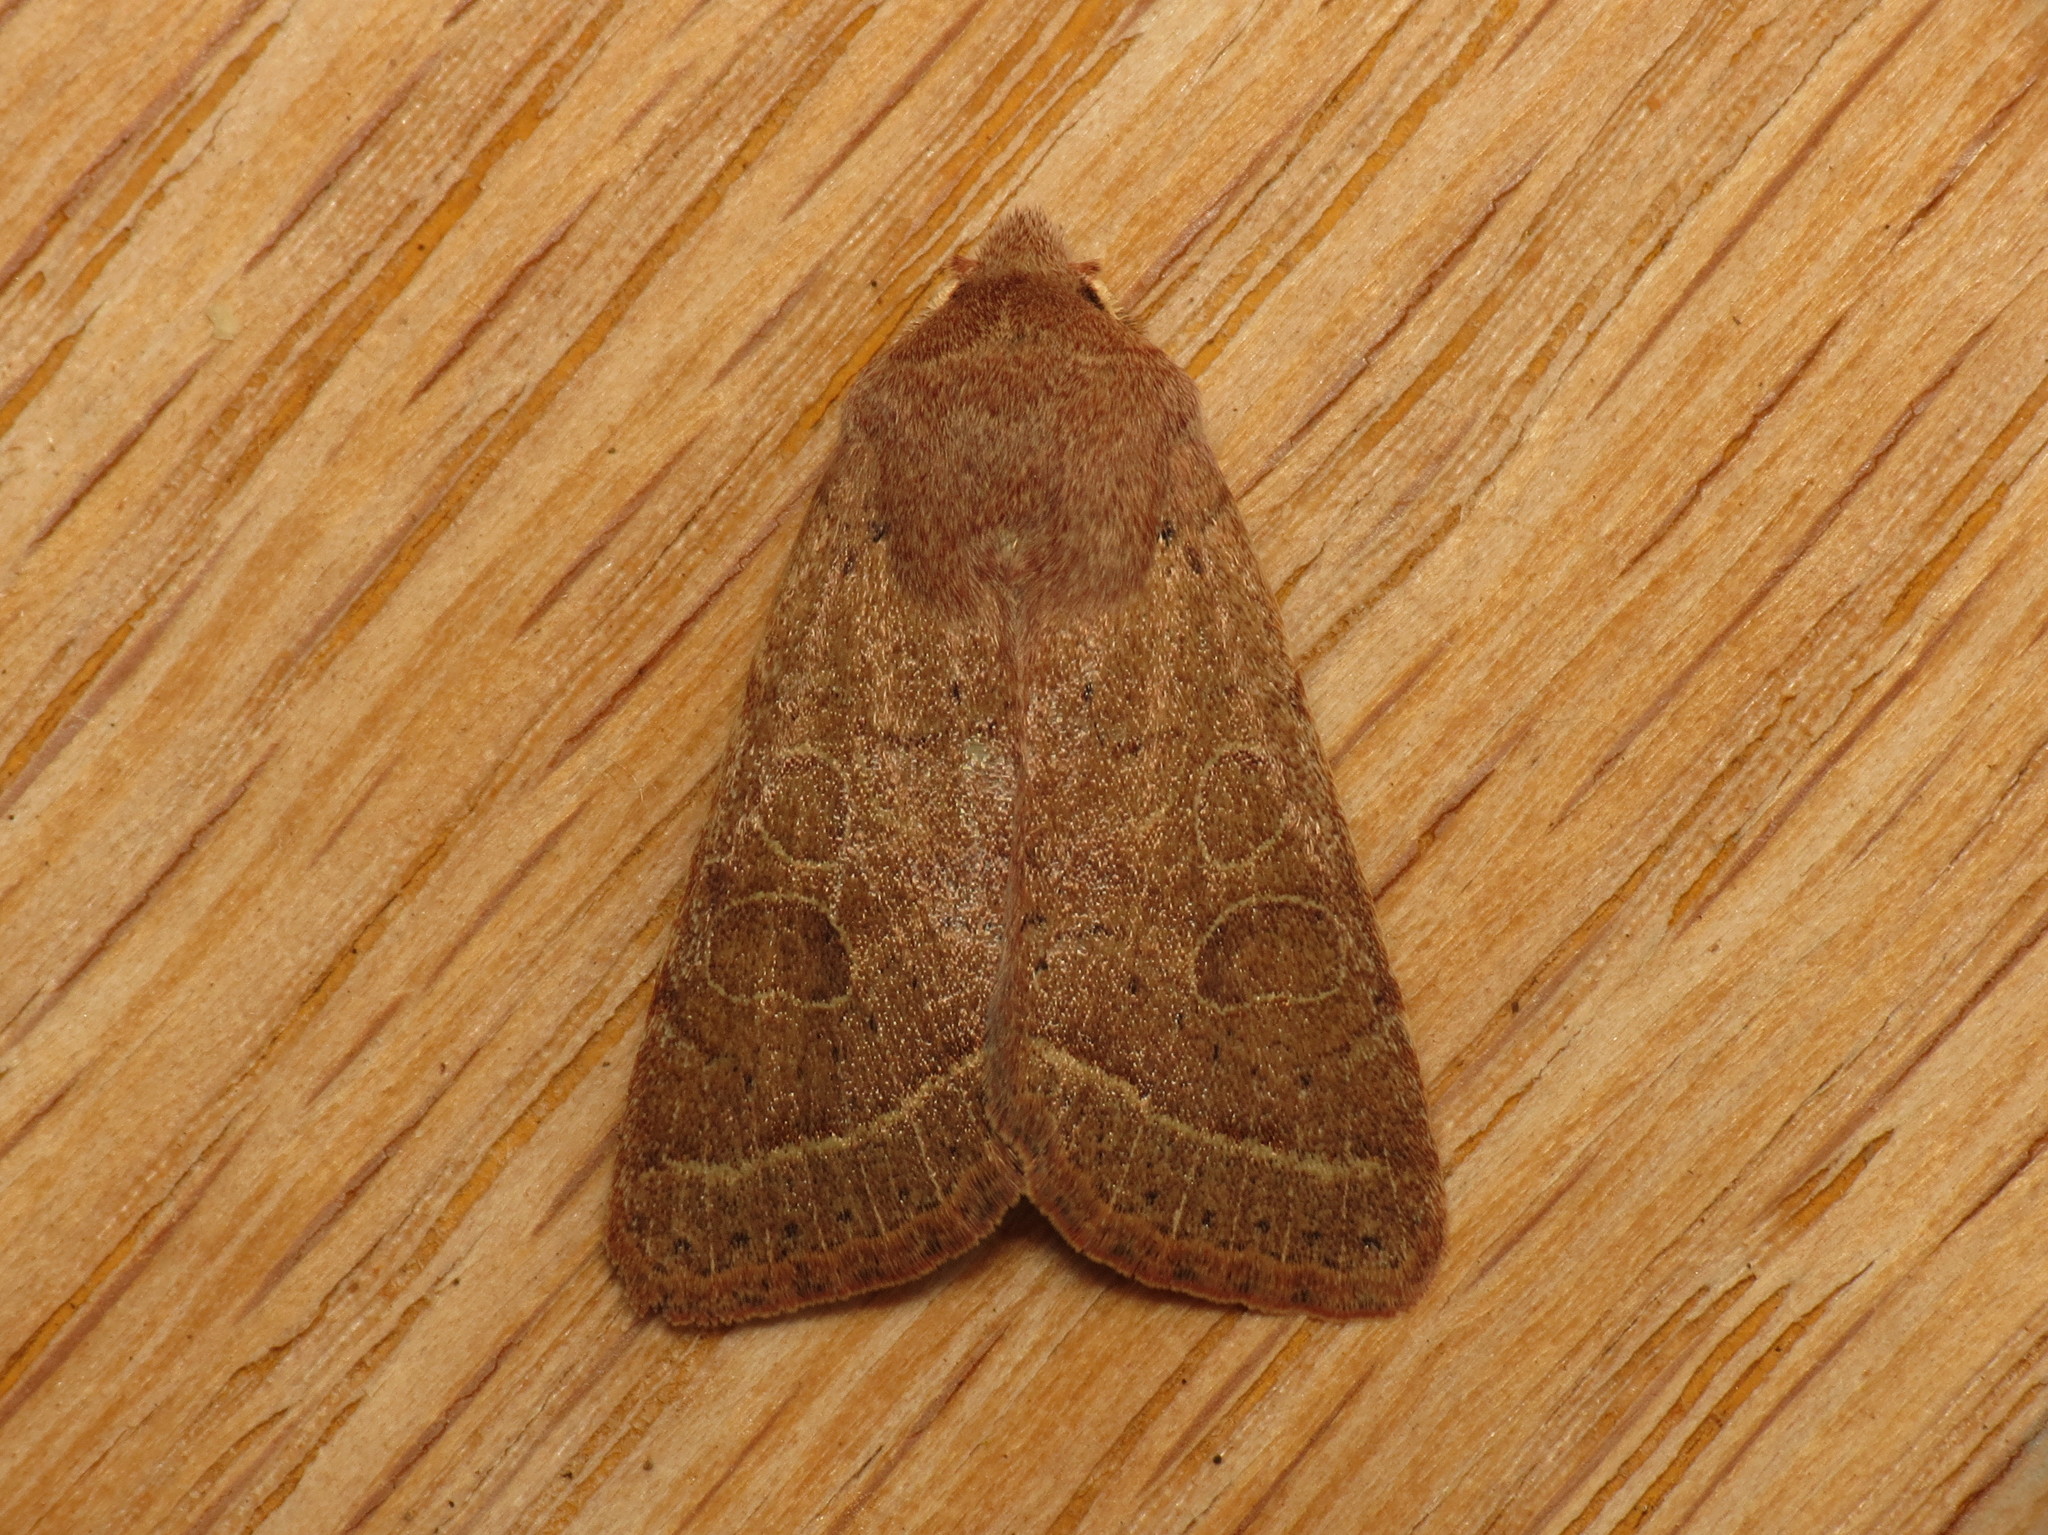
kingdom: Animalia
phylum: Arthropoda
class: Insecta
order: Lepidoptera
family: Noctuidae
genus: Orthosia
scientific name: Orthosia cerasi
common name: Common quaker
